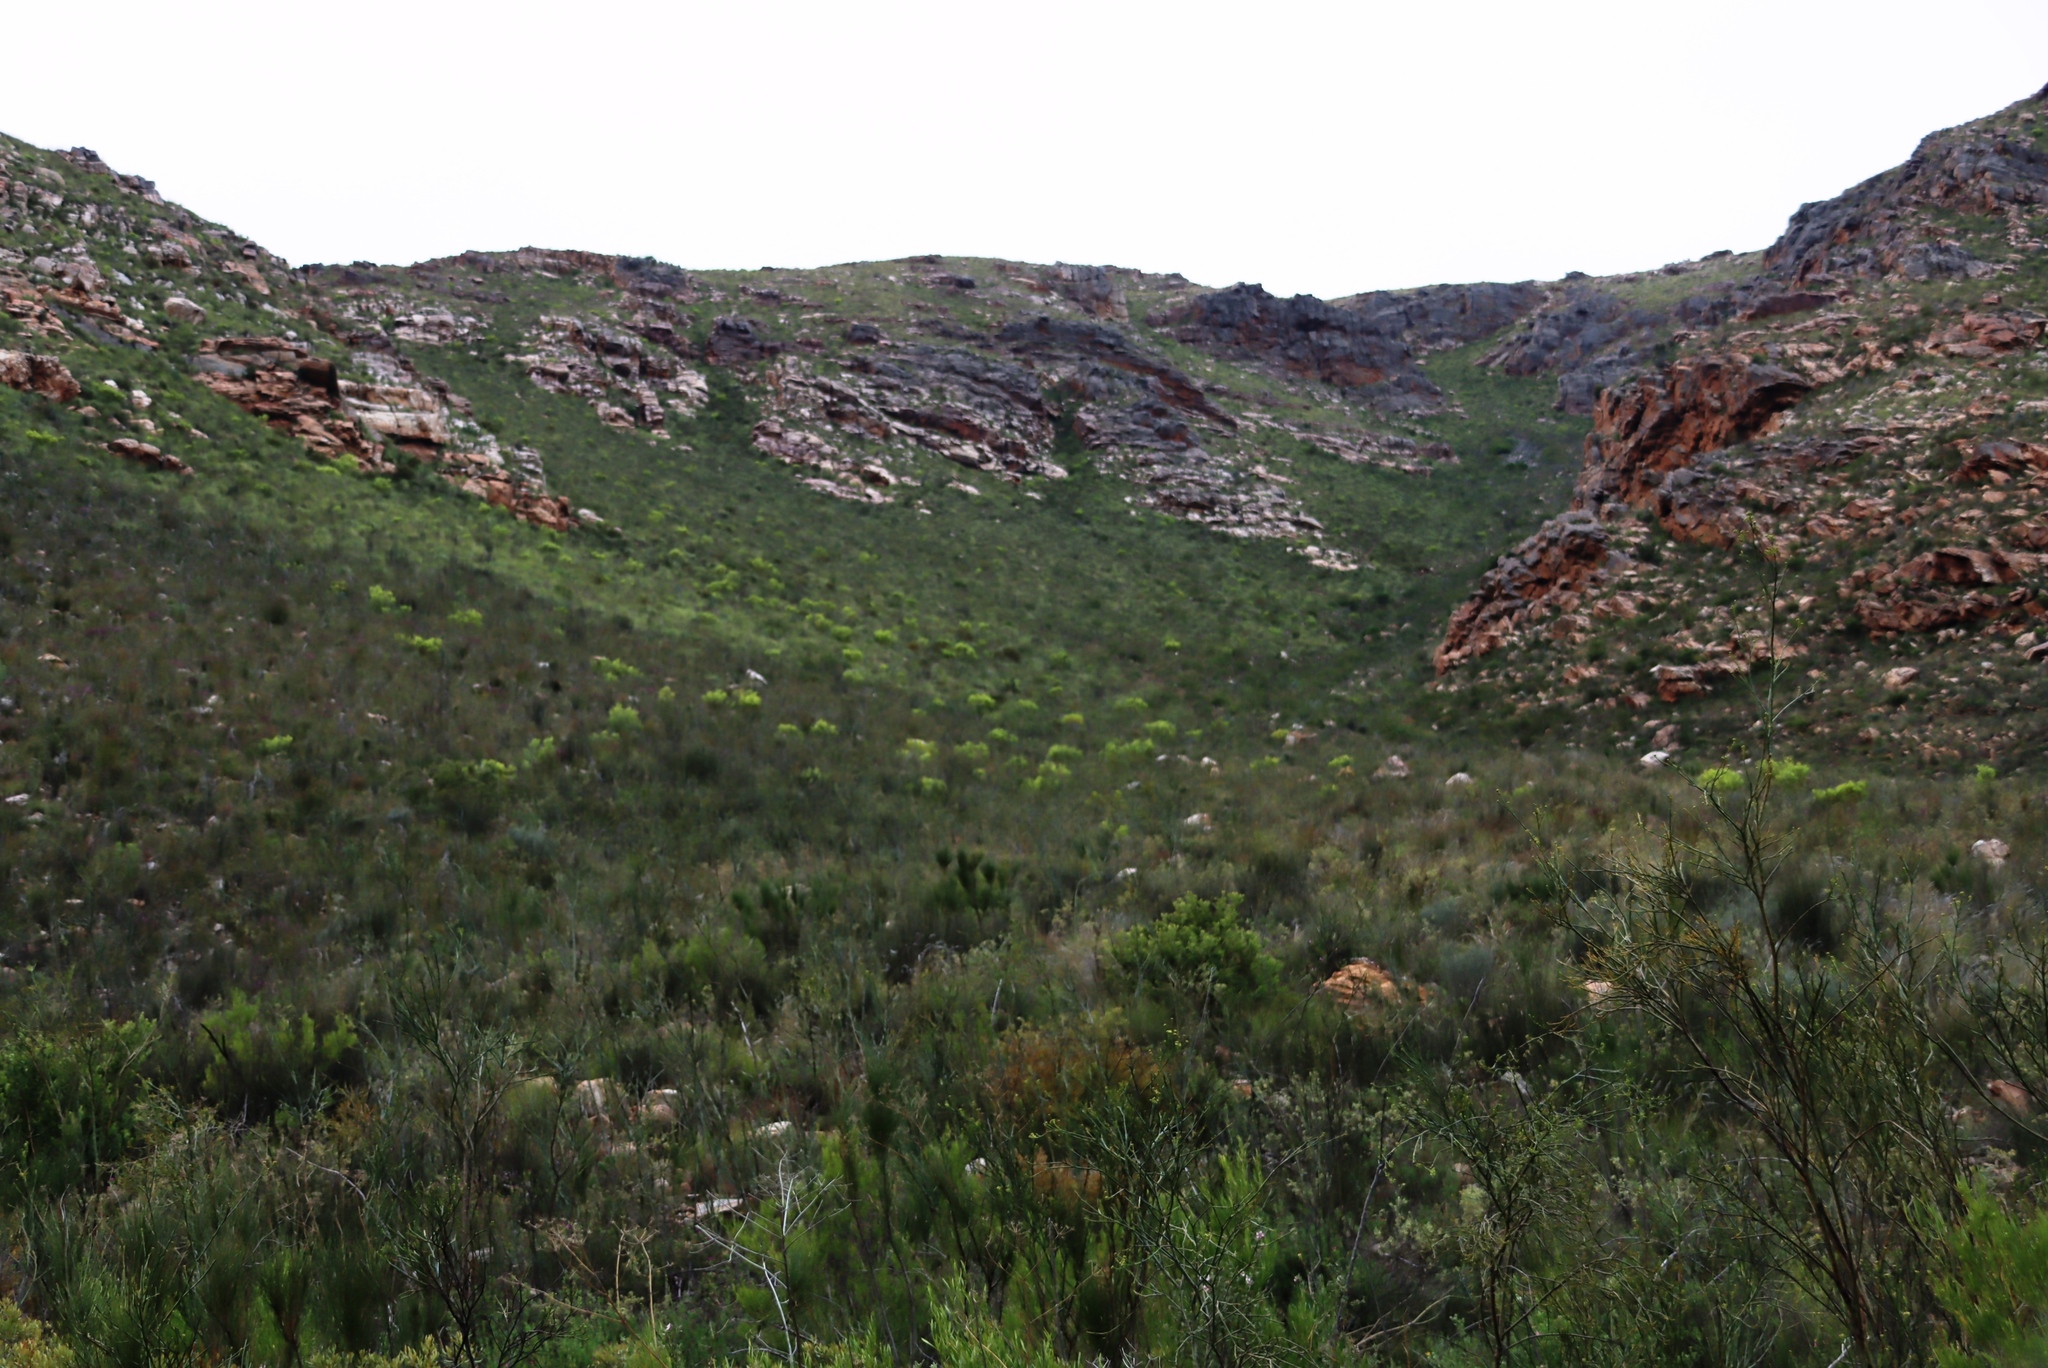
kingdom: Plantae
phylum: Tracheophyta
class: Magnoliopsida
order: Proteales
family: Proteaceae
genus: Leucadendron
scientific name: Leucadendron salignum
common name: Common sunshine conebush
